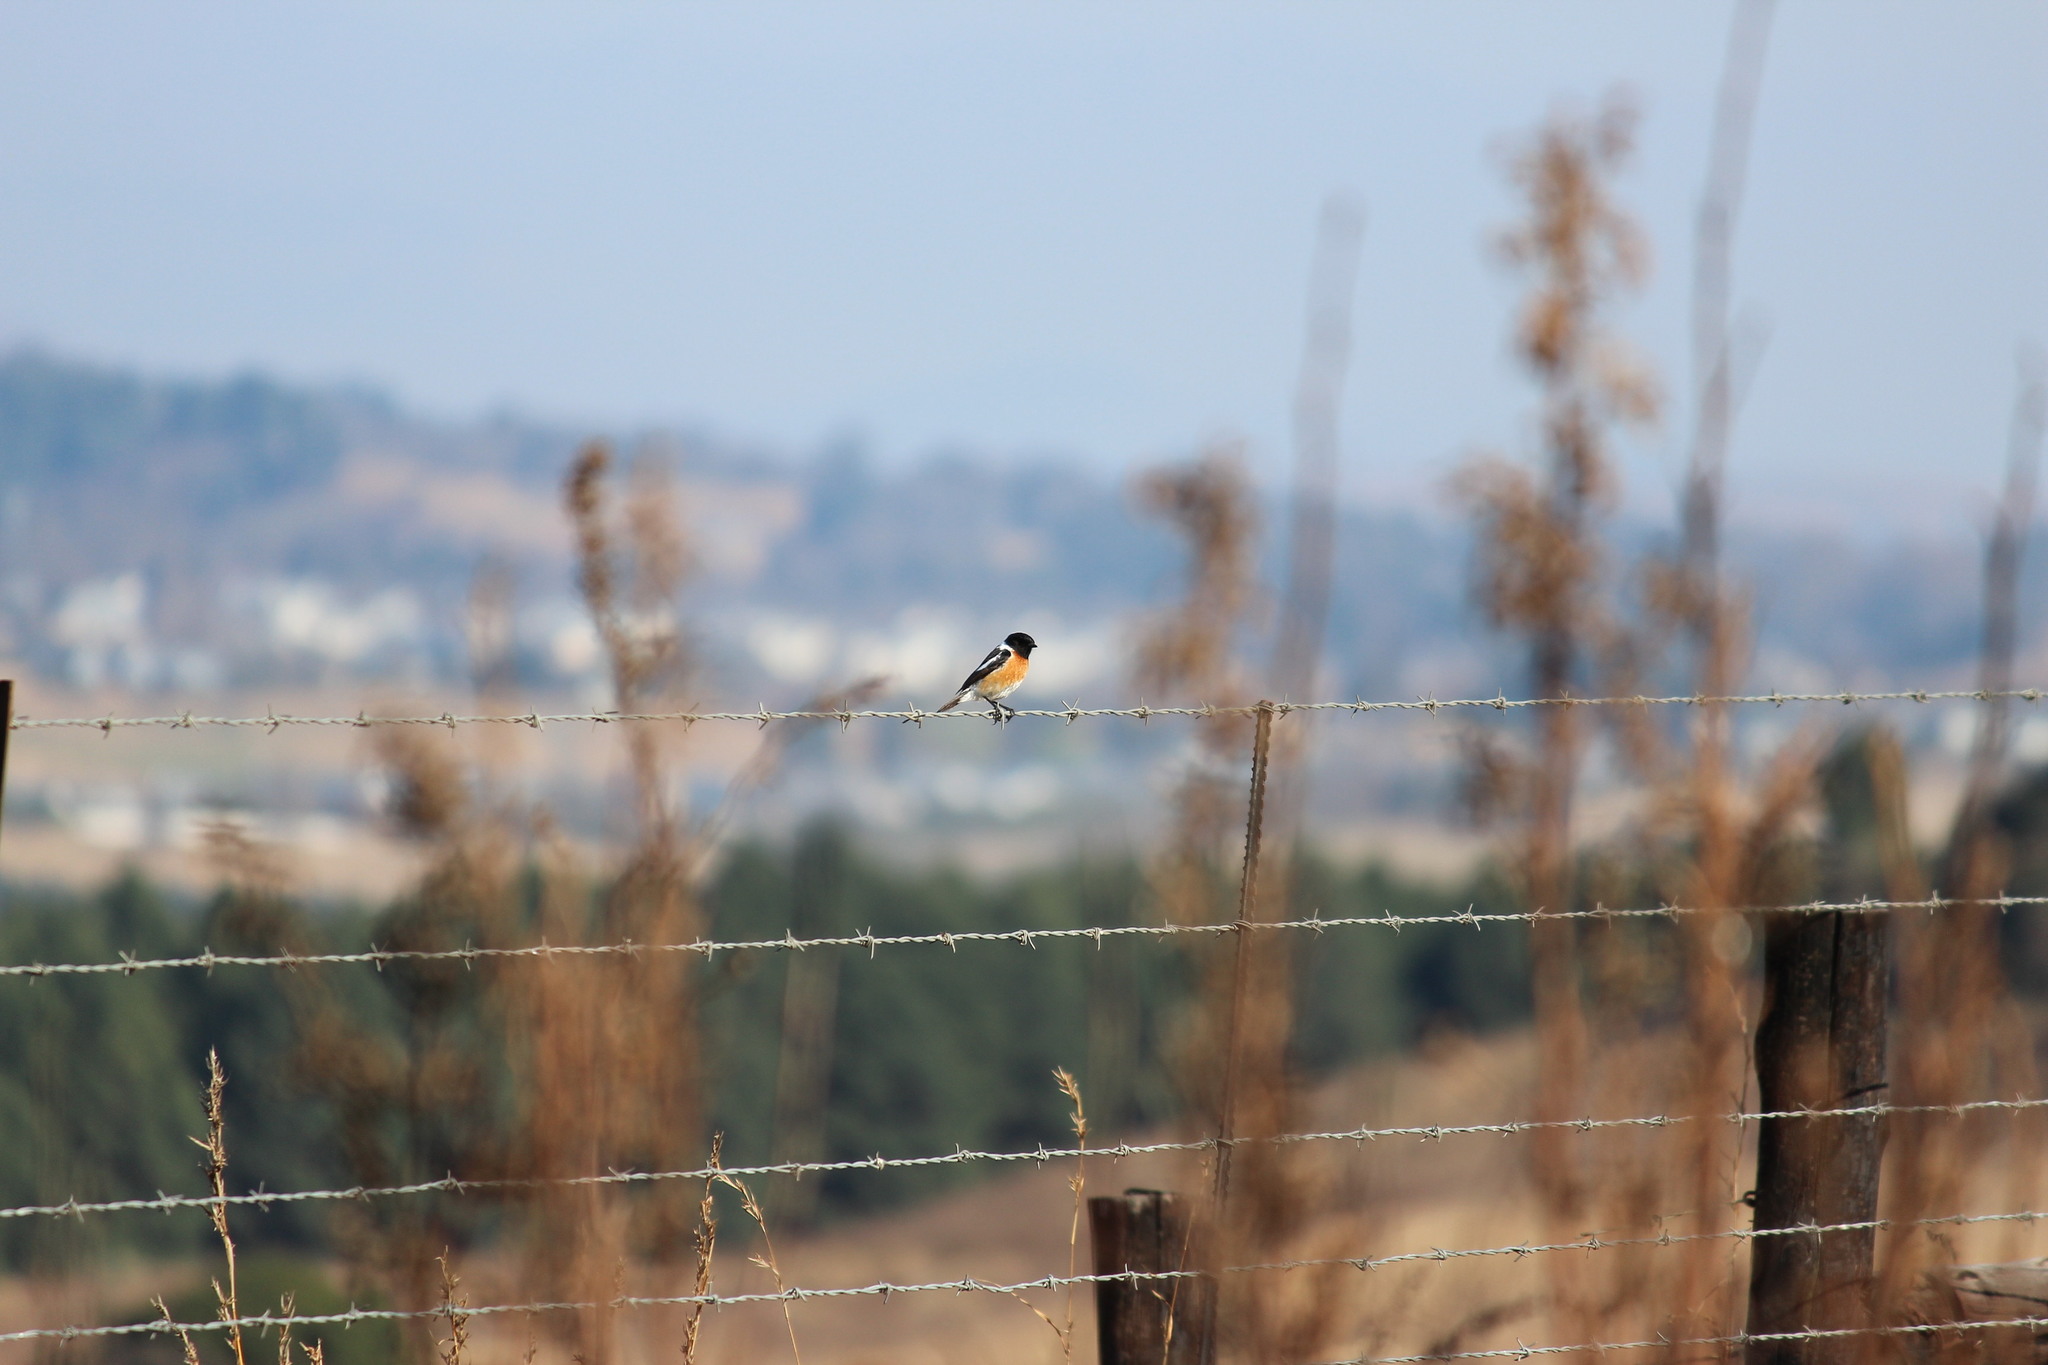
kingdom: Animalia
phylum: Chordata
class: Aves
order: Passeriformes
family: Muscicapidae
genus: Saxicola
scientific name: Saxicola torquatus
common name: African stonechat
